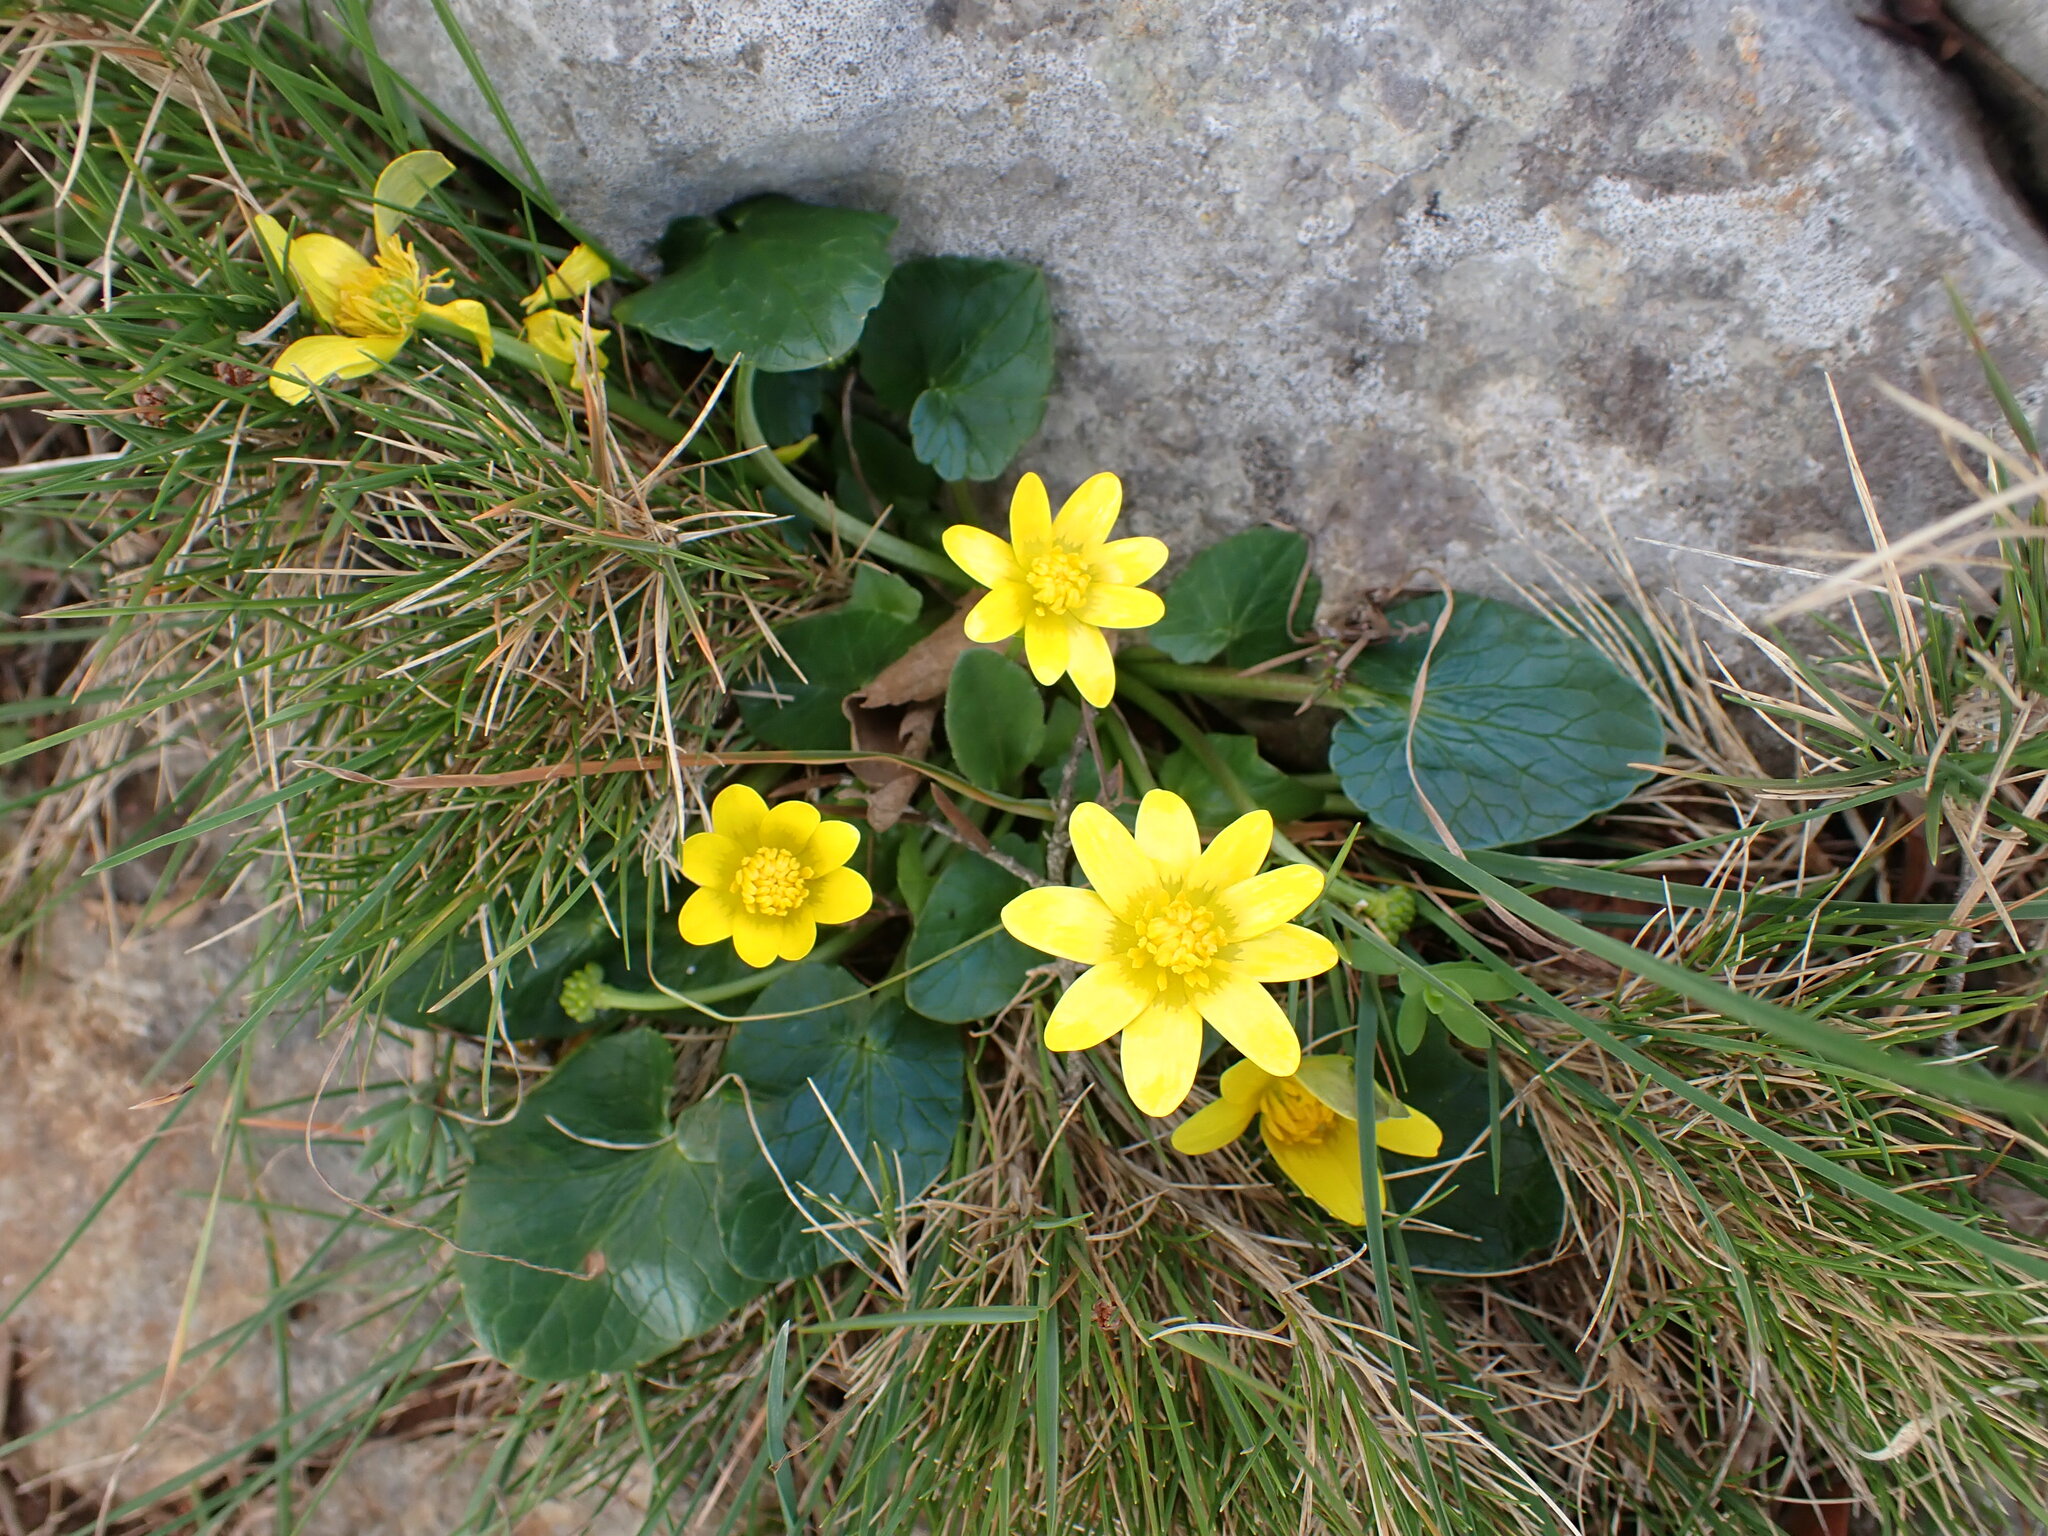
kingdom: Plantae
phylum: Tracheophyta
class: Magnoliopsida
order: Ranunculales
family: Ranunculaceae
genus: Ficaria
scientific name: Ficaria verna
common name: Lesser celandine
